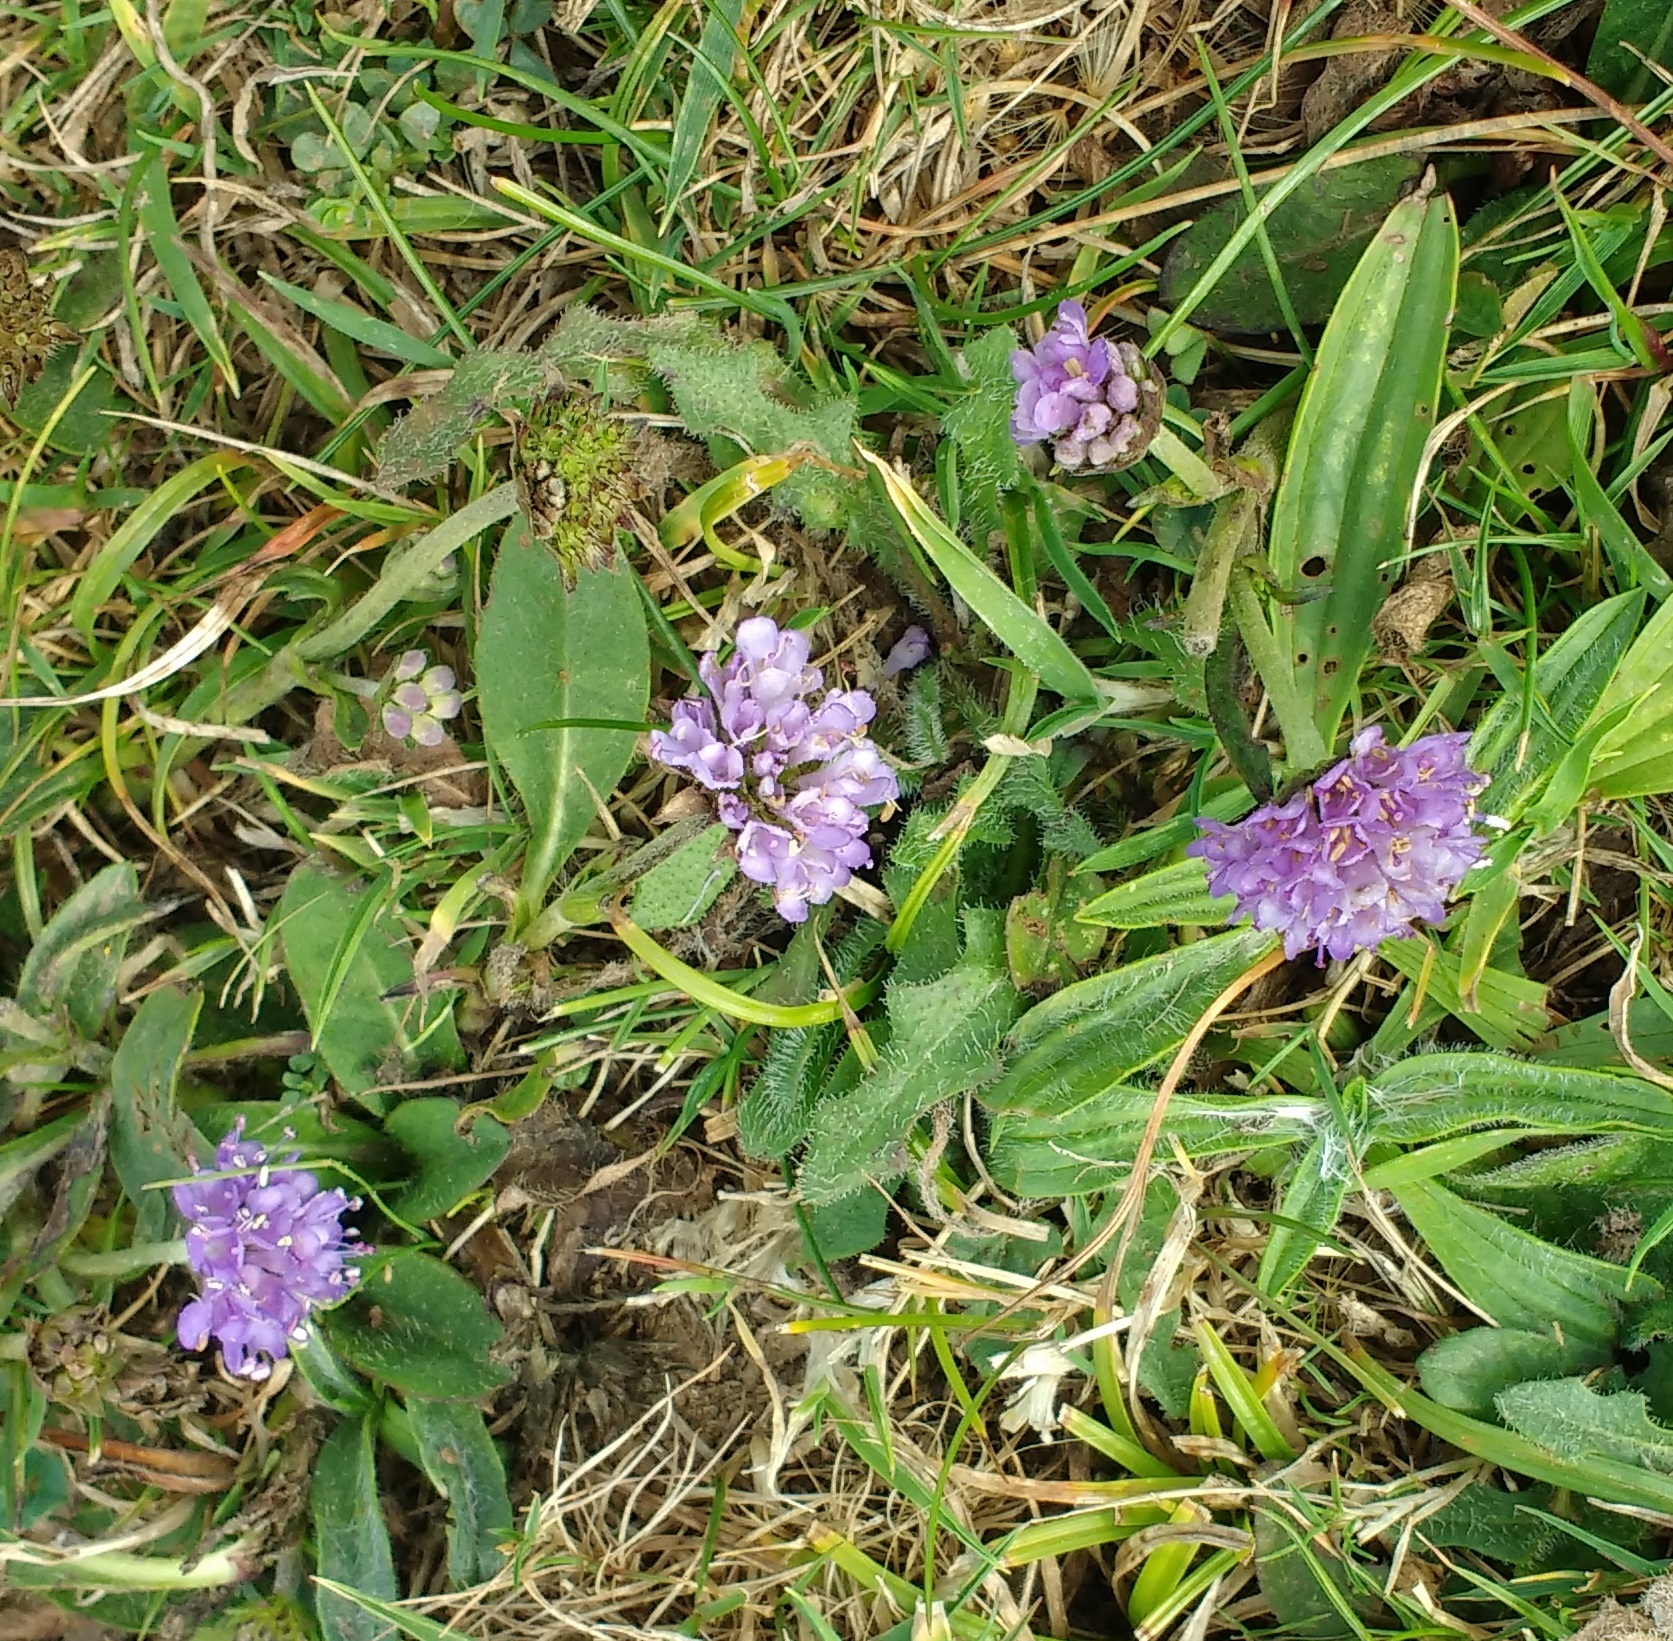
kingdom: Plantae
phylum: Tracheophyta
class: Magnoliopsida
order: Dipsacales
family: Caprifoliaceae
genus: Succisa
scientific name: Succisa pratensis
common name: Devil's-bit
